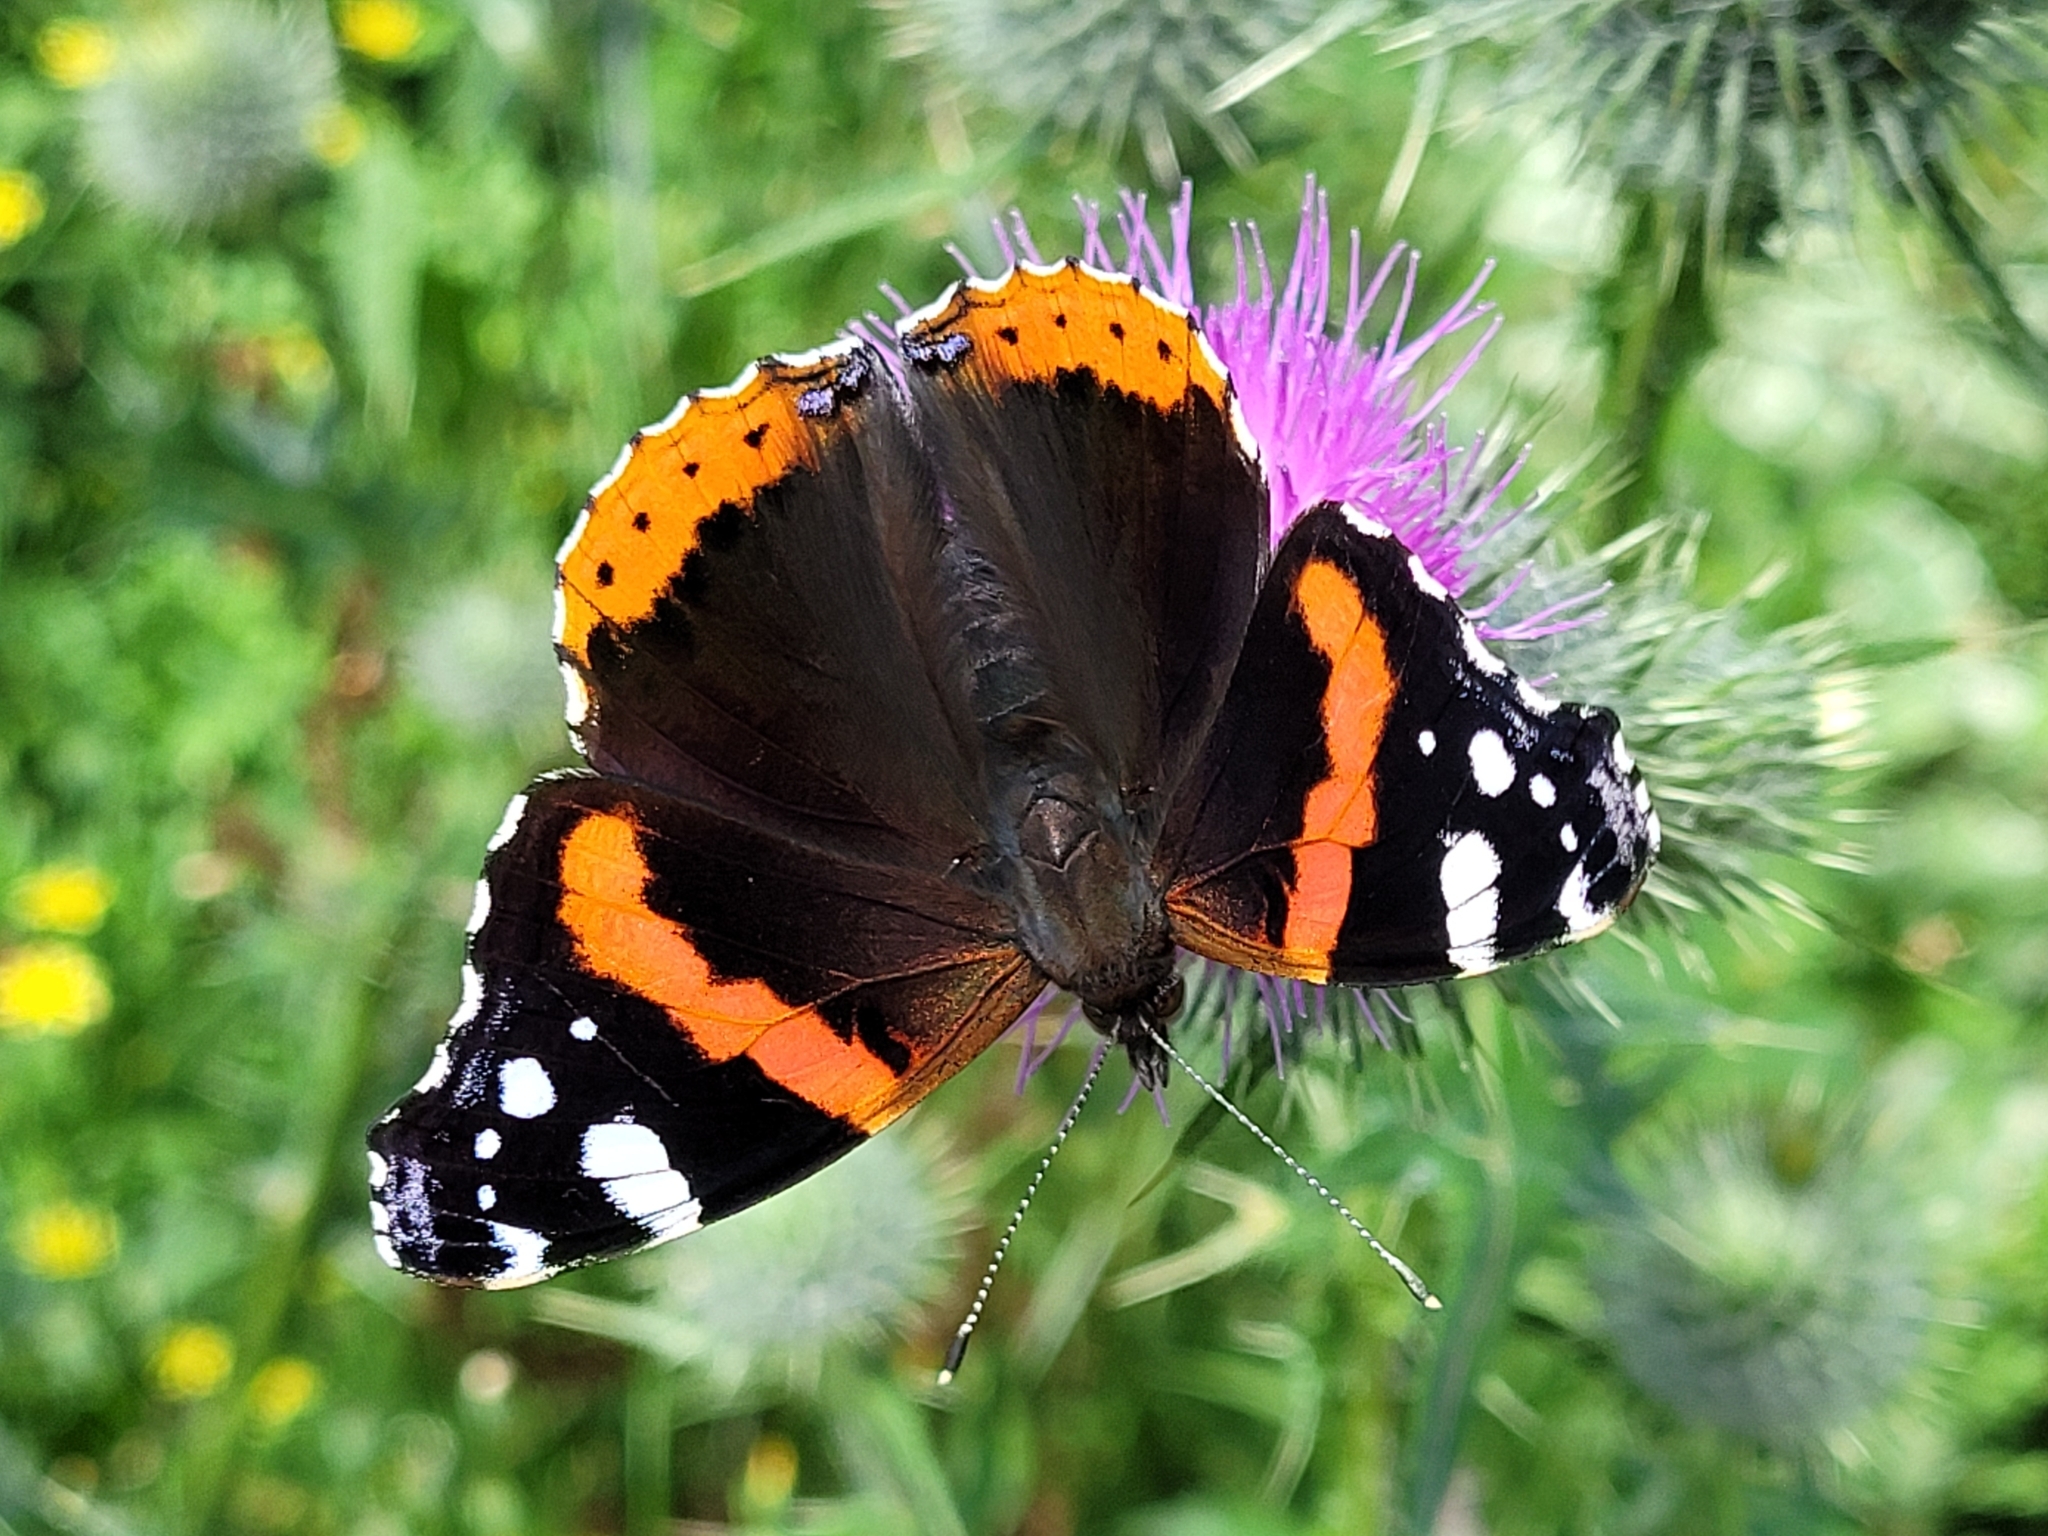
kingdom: Animalia
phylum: Arthropoda
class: Insecta
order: Lepidoptera
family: Nymphalidae
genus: Vanessa
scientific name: Vanessa atalanta
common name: Red admiral
